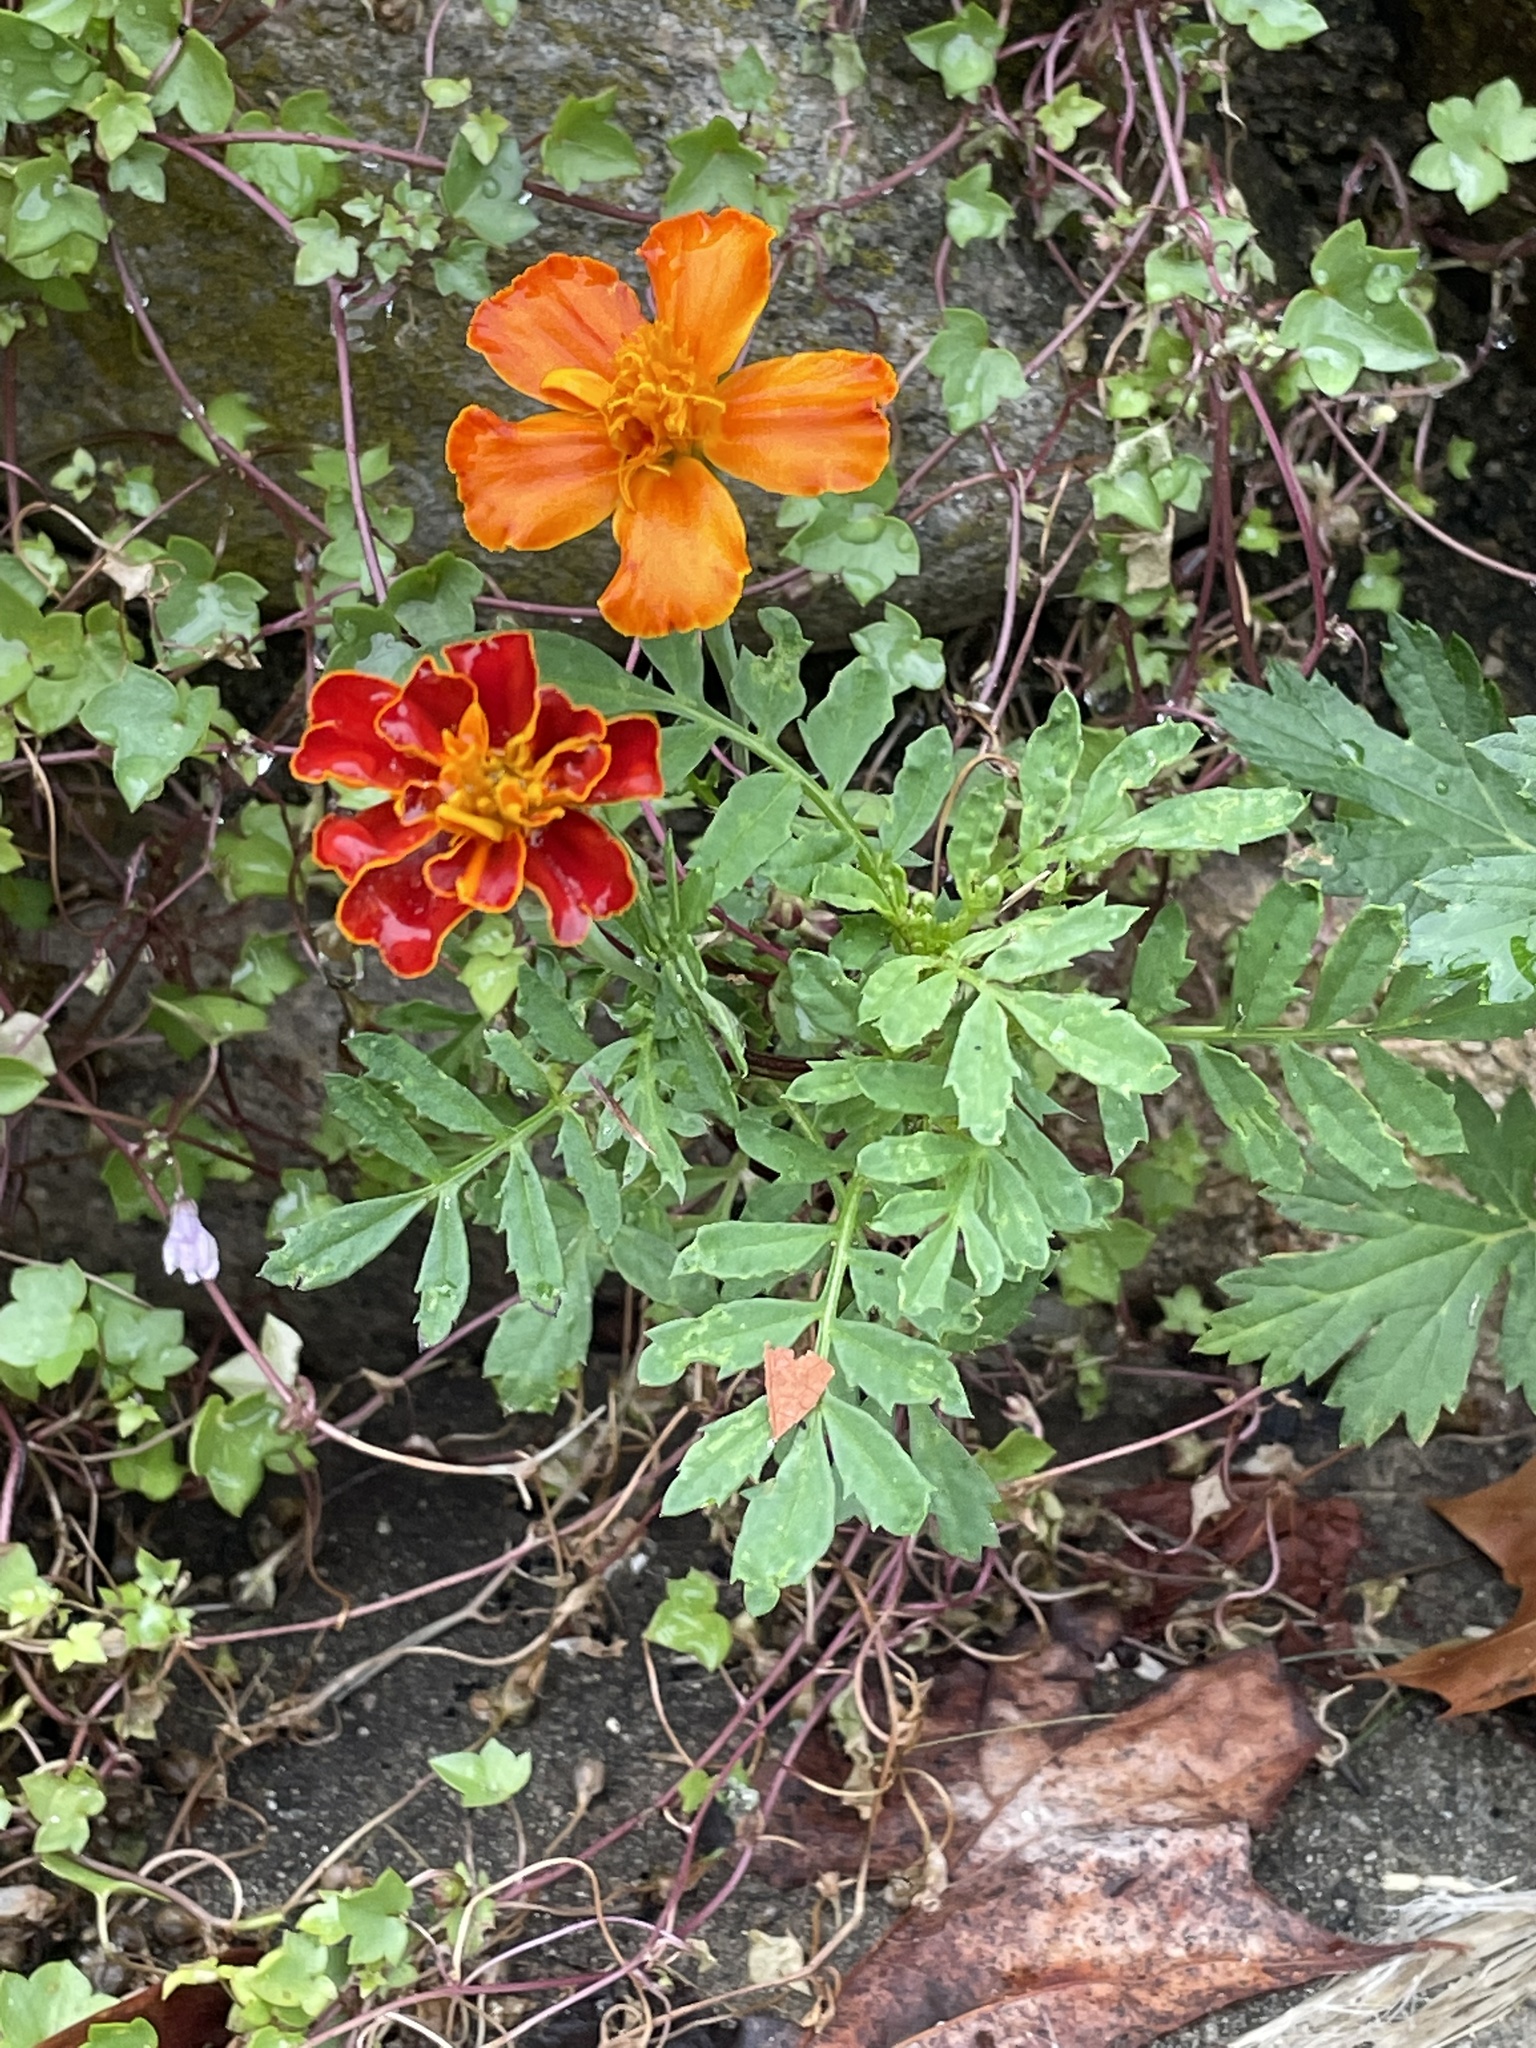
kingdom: Plantae
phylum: Tracheophyta
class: Magnoliopsida
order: Asterales
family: Asteraceae
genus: Tagetes
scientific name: Tagetes erecta
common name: African marigold
